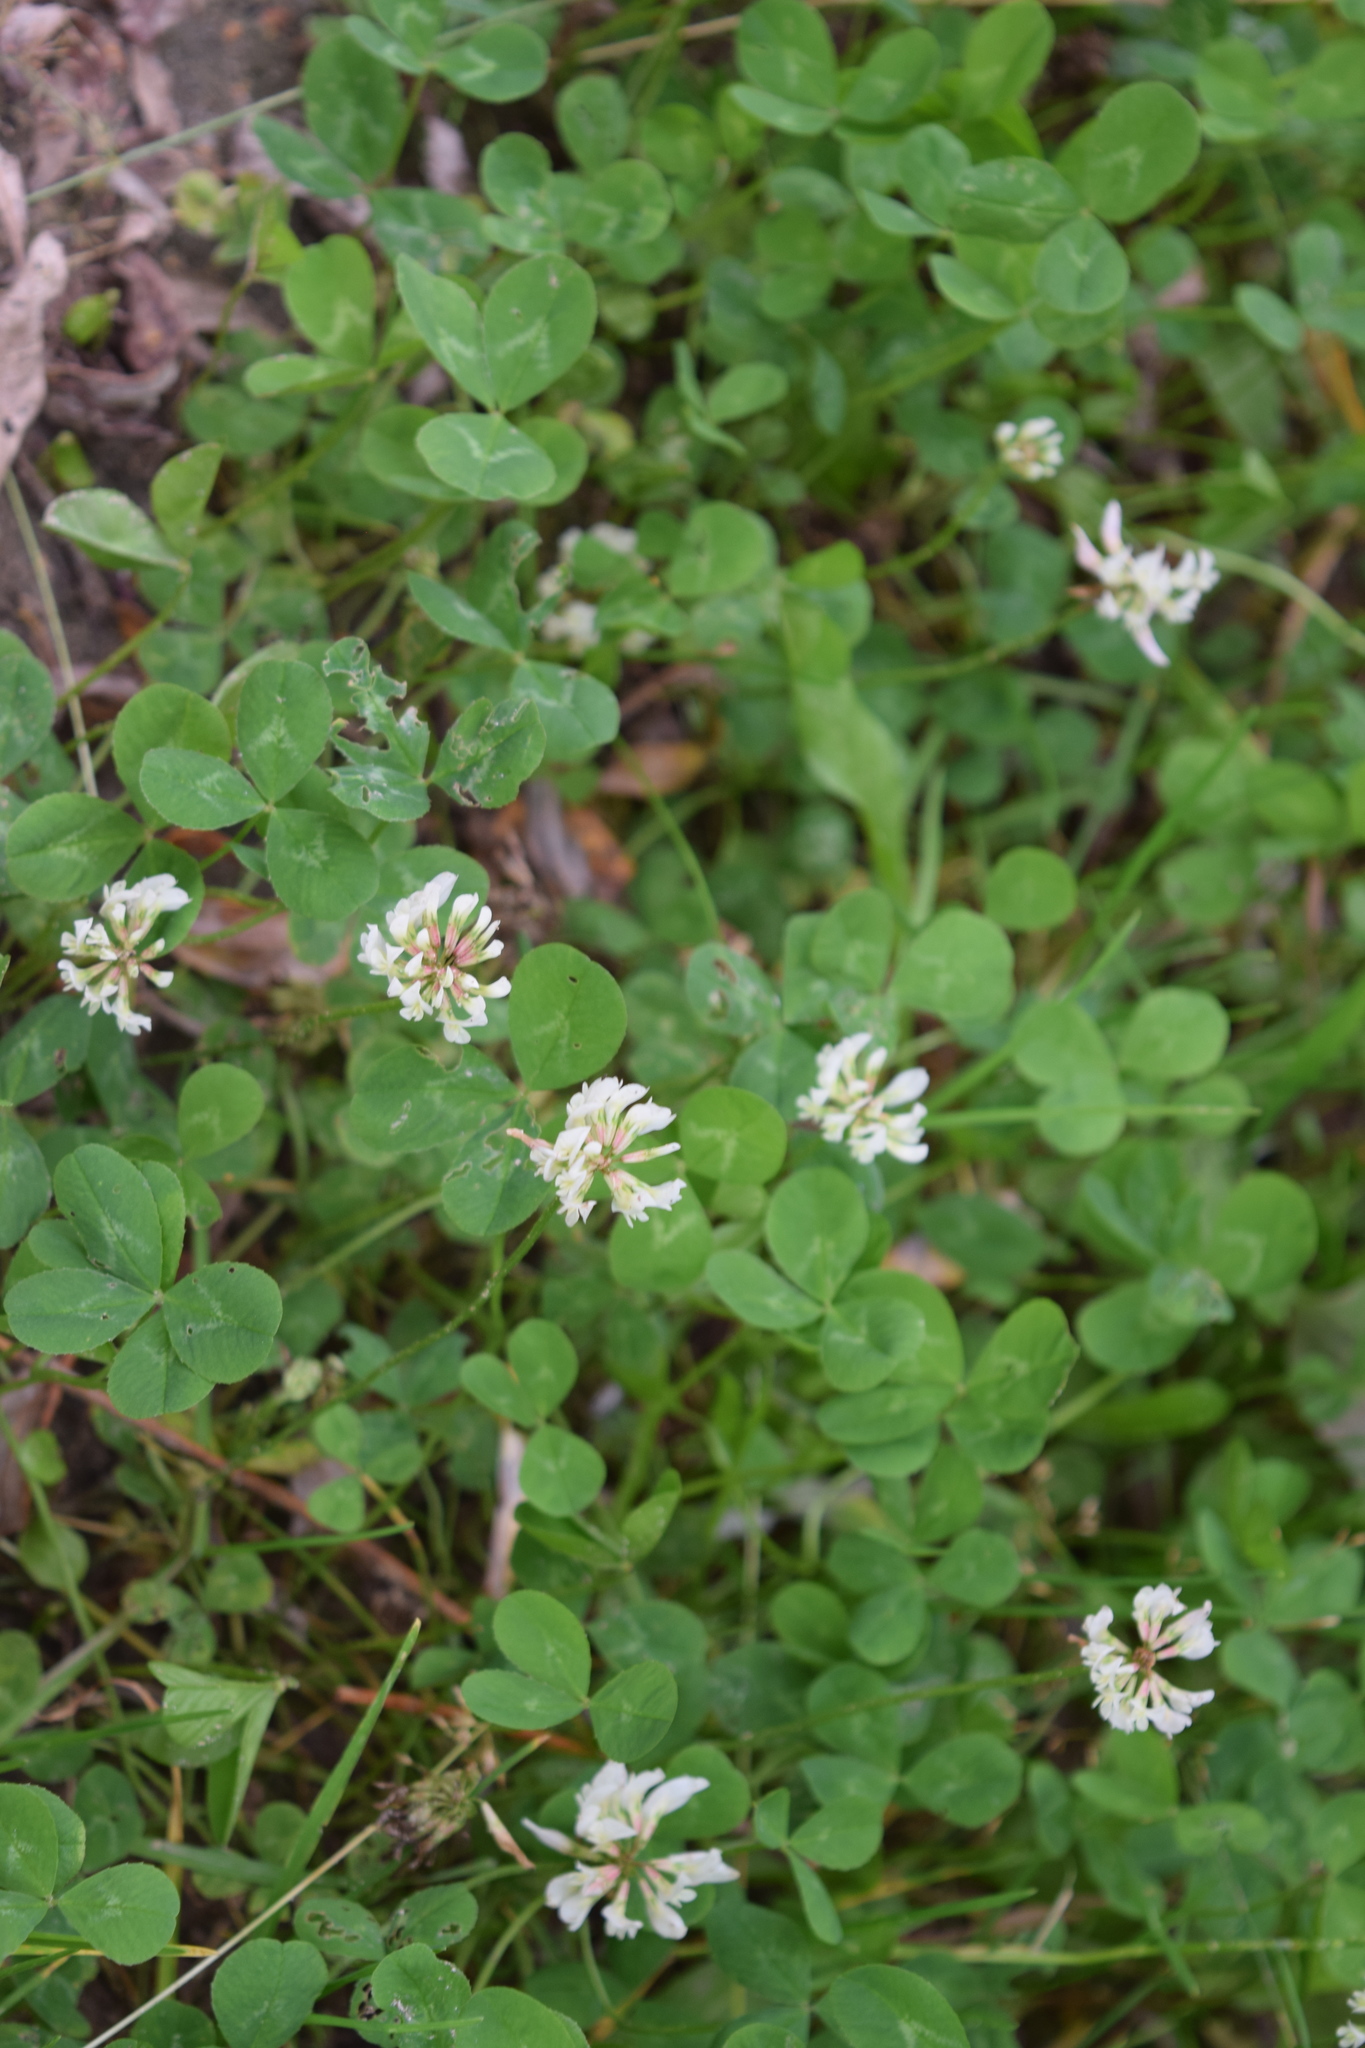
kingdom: Plantae
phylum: Tracheophyta
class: Magnoliopsida
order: Fabales
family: Fabaceae
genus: Trifolium
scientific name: Trifolium repens
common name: White clover
